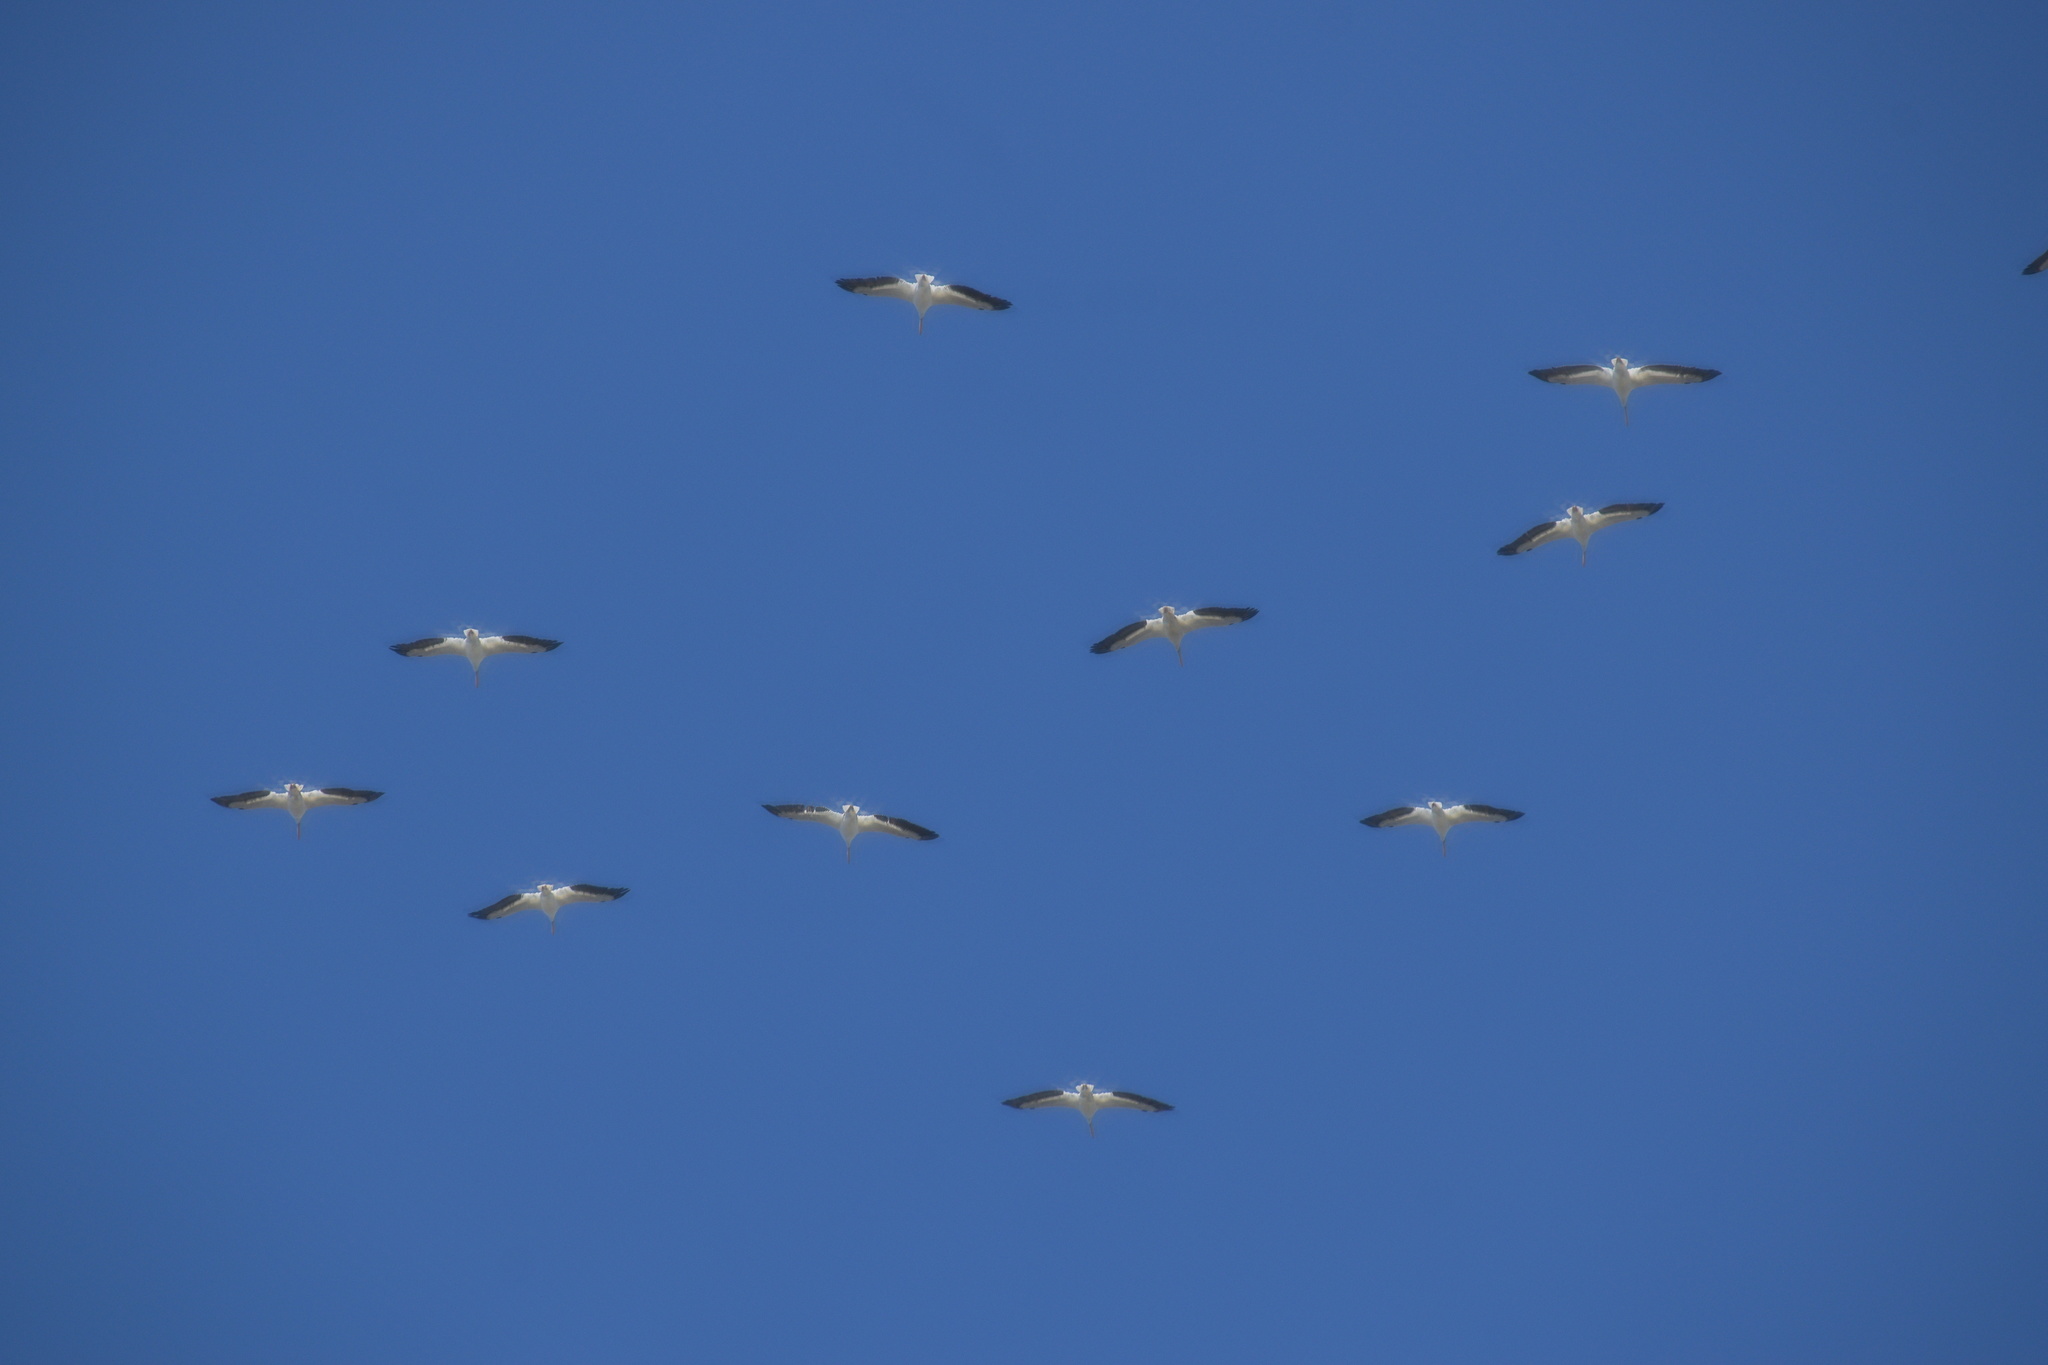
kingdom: Animalia
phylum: Chordata
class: Aves
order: Pelecaniformes
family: Pelecanidae
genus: Pelecanus
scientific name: Pelecanus erythrorhynchos
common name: American white pelican
